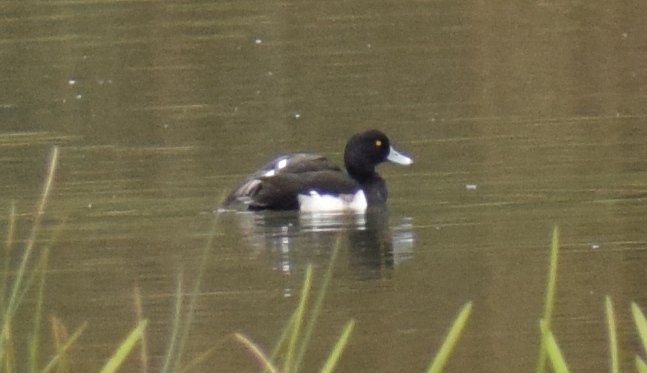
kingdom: Animalia
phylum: Chordata
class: Aves
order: Anseriformes
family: Anatidae
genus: Aythya
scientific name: Aythya fuligula
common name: Tufted duck
